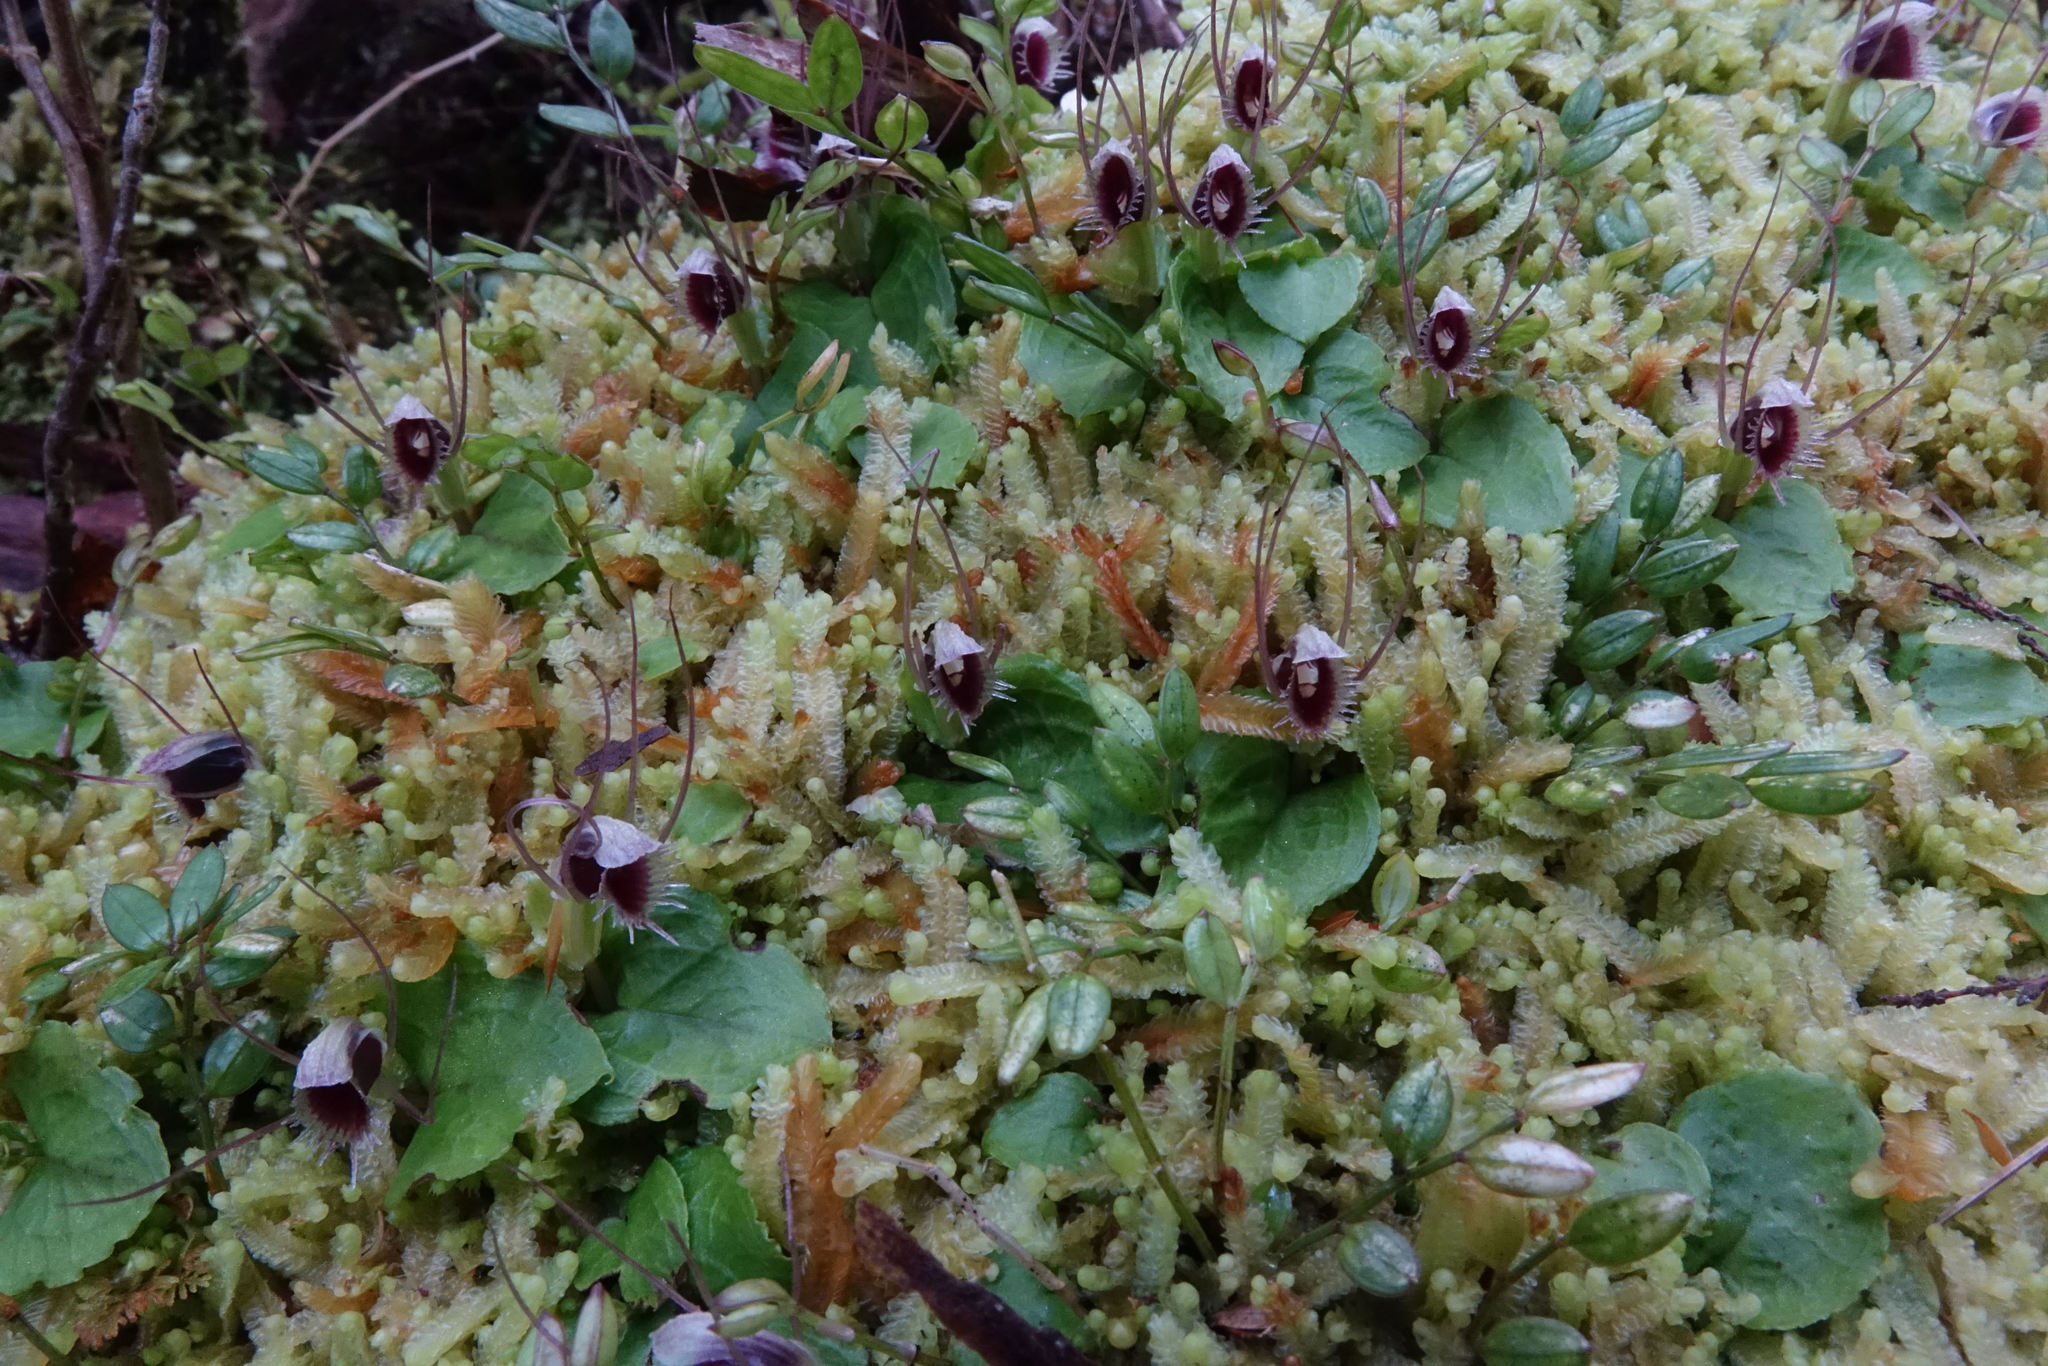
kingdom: Plantae
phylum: Tracheophyta
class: Liliopsida
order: Asparagales
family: Orchidaceae
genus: Corybas
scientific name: Corybas oblongus
